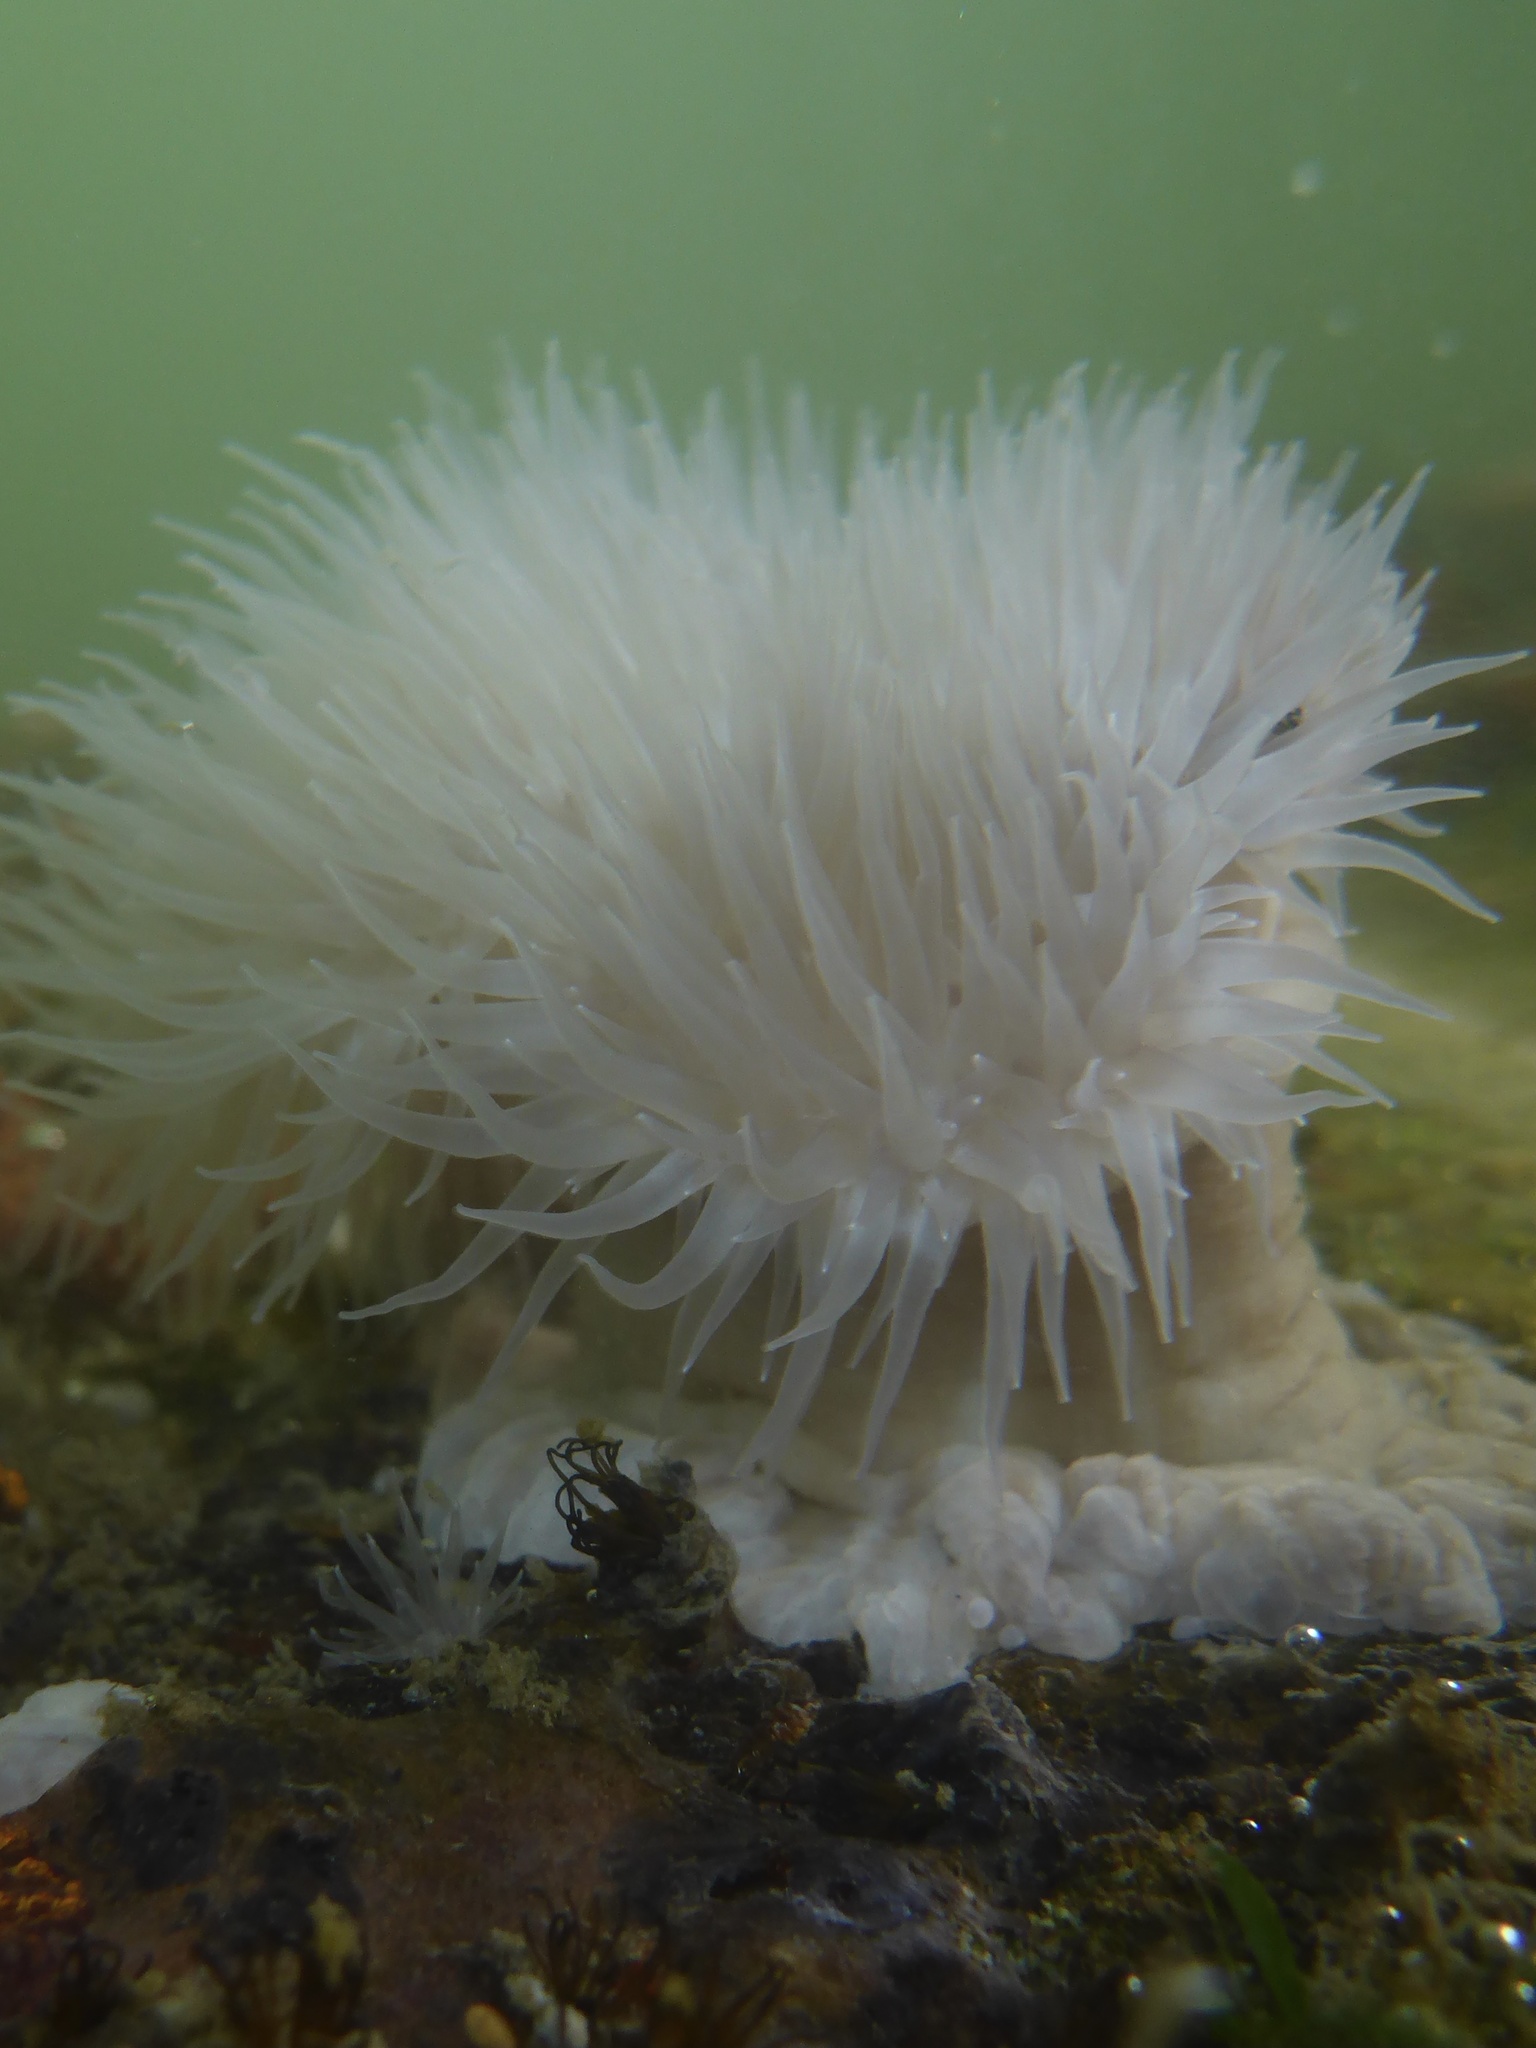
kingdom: Animalia
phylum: Cnidaria
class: Anthozoa
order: Actiniaria
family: Metridiidae
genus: Metridium
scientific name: Metridium senile
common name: Clonal plumose anemone
